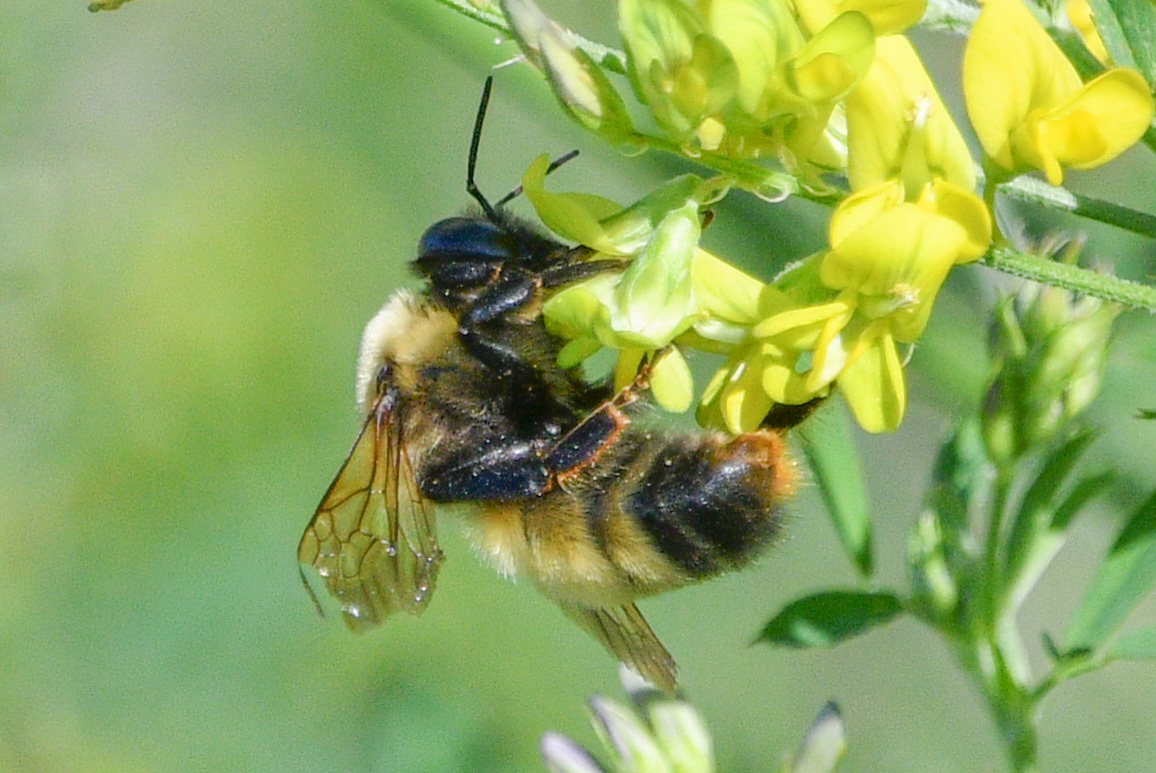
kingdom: Animalia
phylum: Arthropoda
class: Insecta
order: Hymenoptera
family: Apidae
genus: Bombus
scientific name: Bombus nevadensis
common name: Nevada bumble bee
